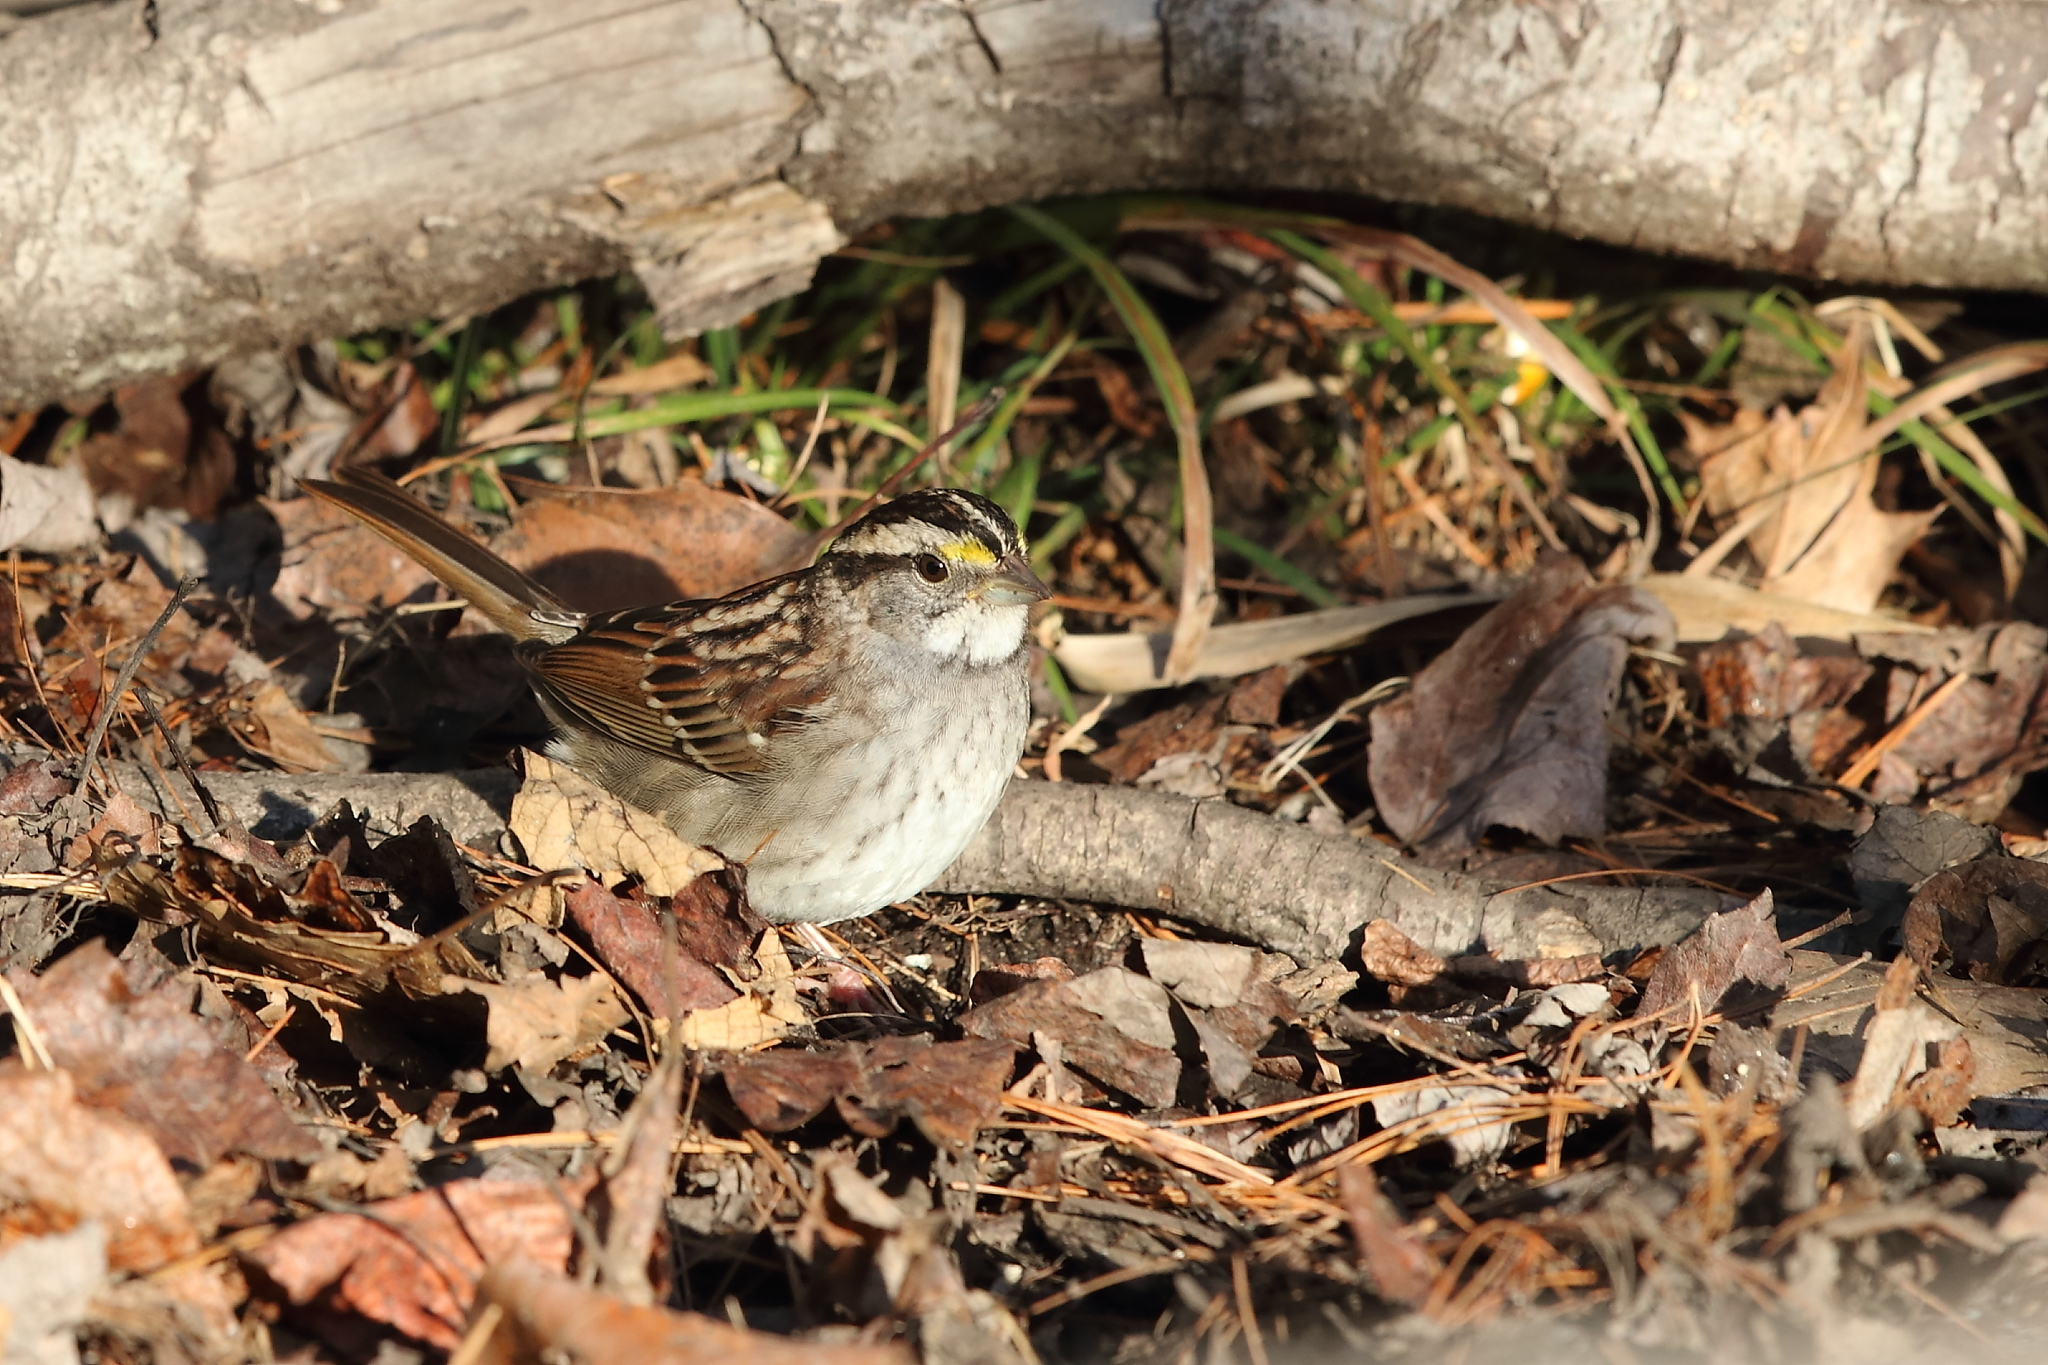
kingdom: Animalia
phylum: Chordata
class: Aves
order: Passeriformes
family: Passerellidae
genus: Zonotrichia
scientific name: Zonotrichia albicollis
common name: White-throated sparrow
